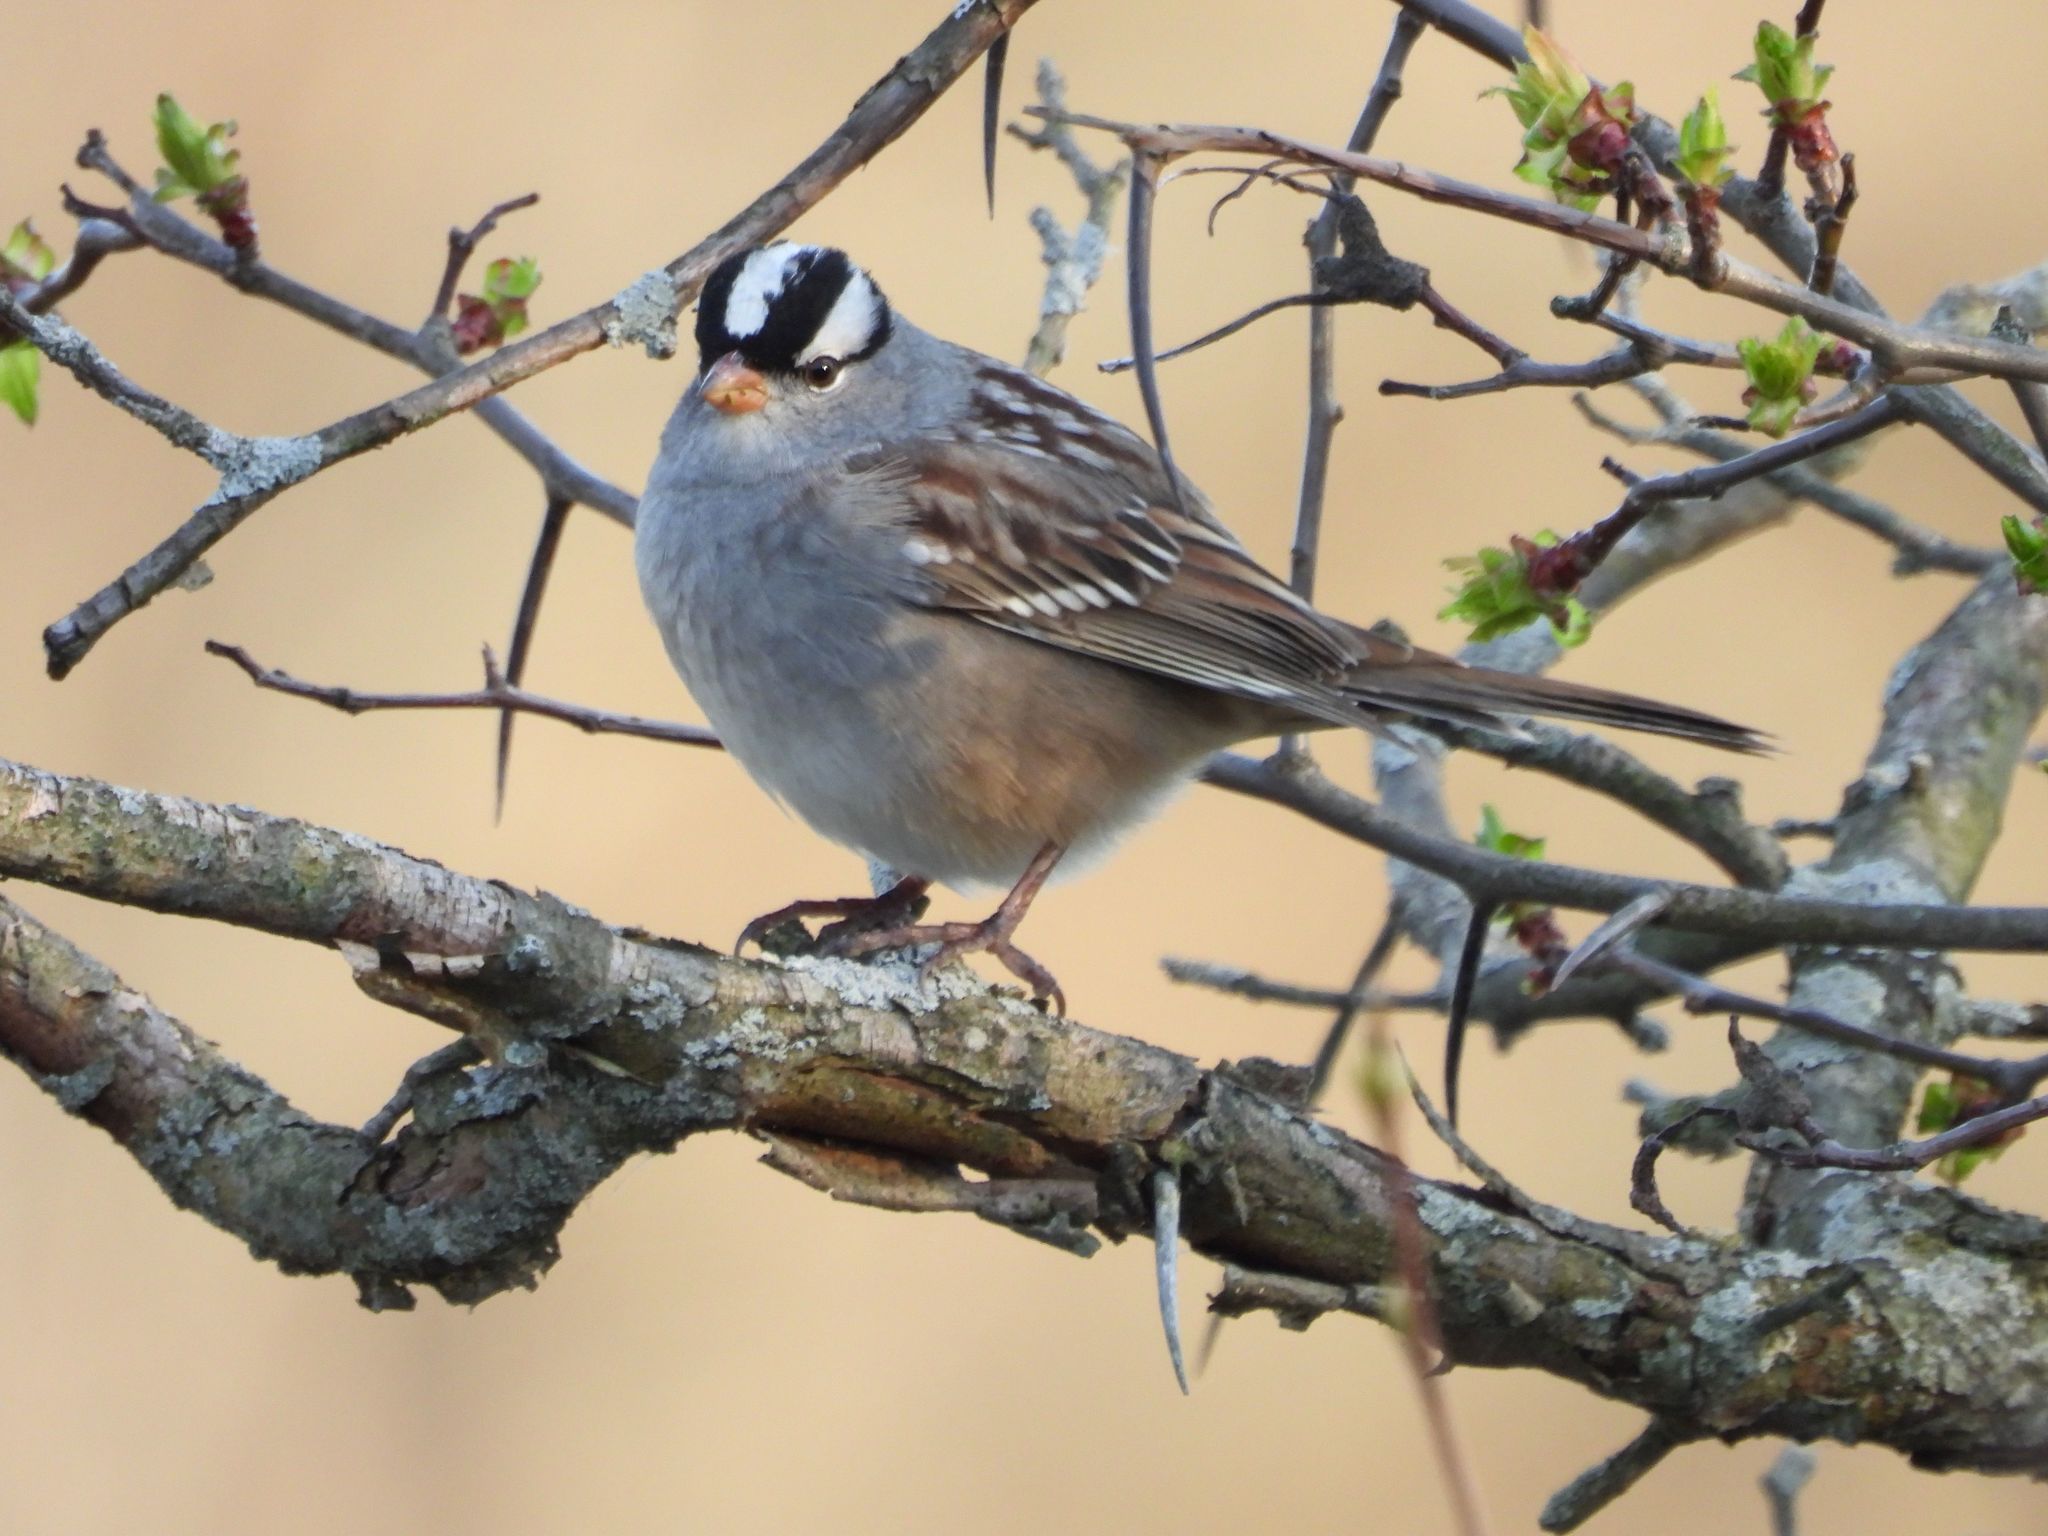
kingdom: Animalia
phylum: Chordata
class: Aves
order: Passeriformes
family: Passerellidae
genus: Zonotrichia
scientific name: Zonotrichia leucophrys
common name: White-crowned sparrow
